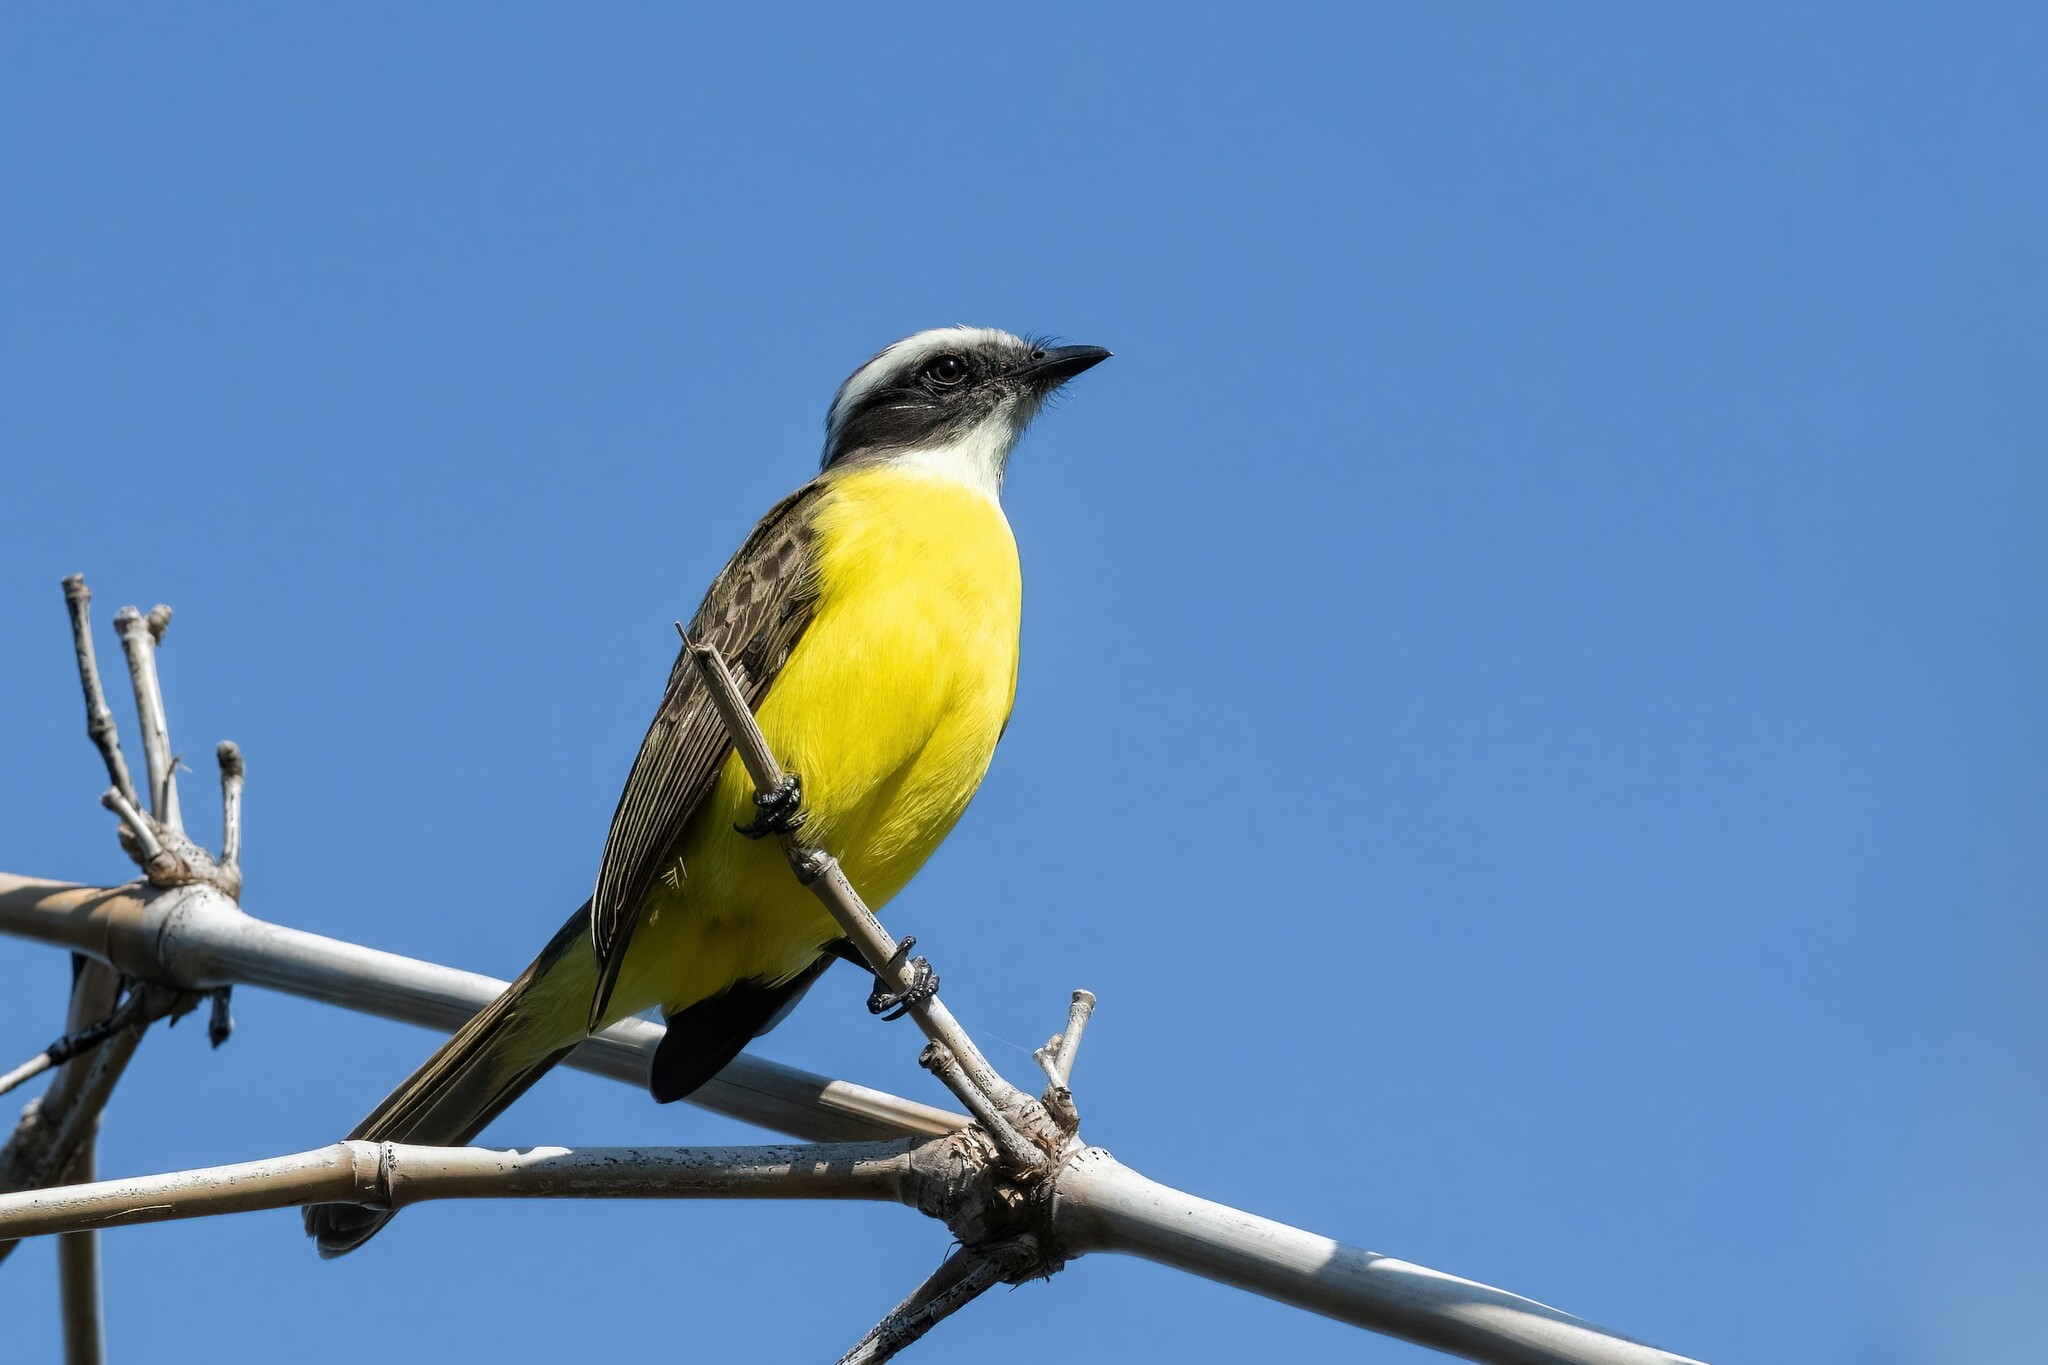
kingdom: Animalia
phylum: Chordata
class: Aves
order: Passeriformes
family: Tyrannidae
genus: Myiozetetes
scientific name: Myiozetetes similis
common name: Social flycatcher
